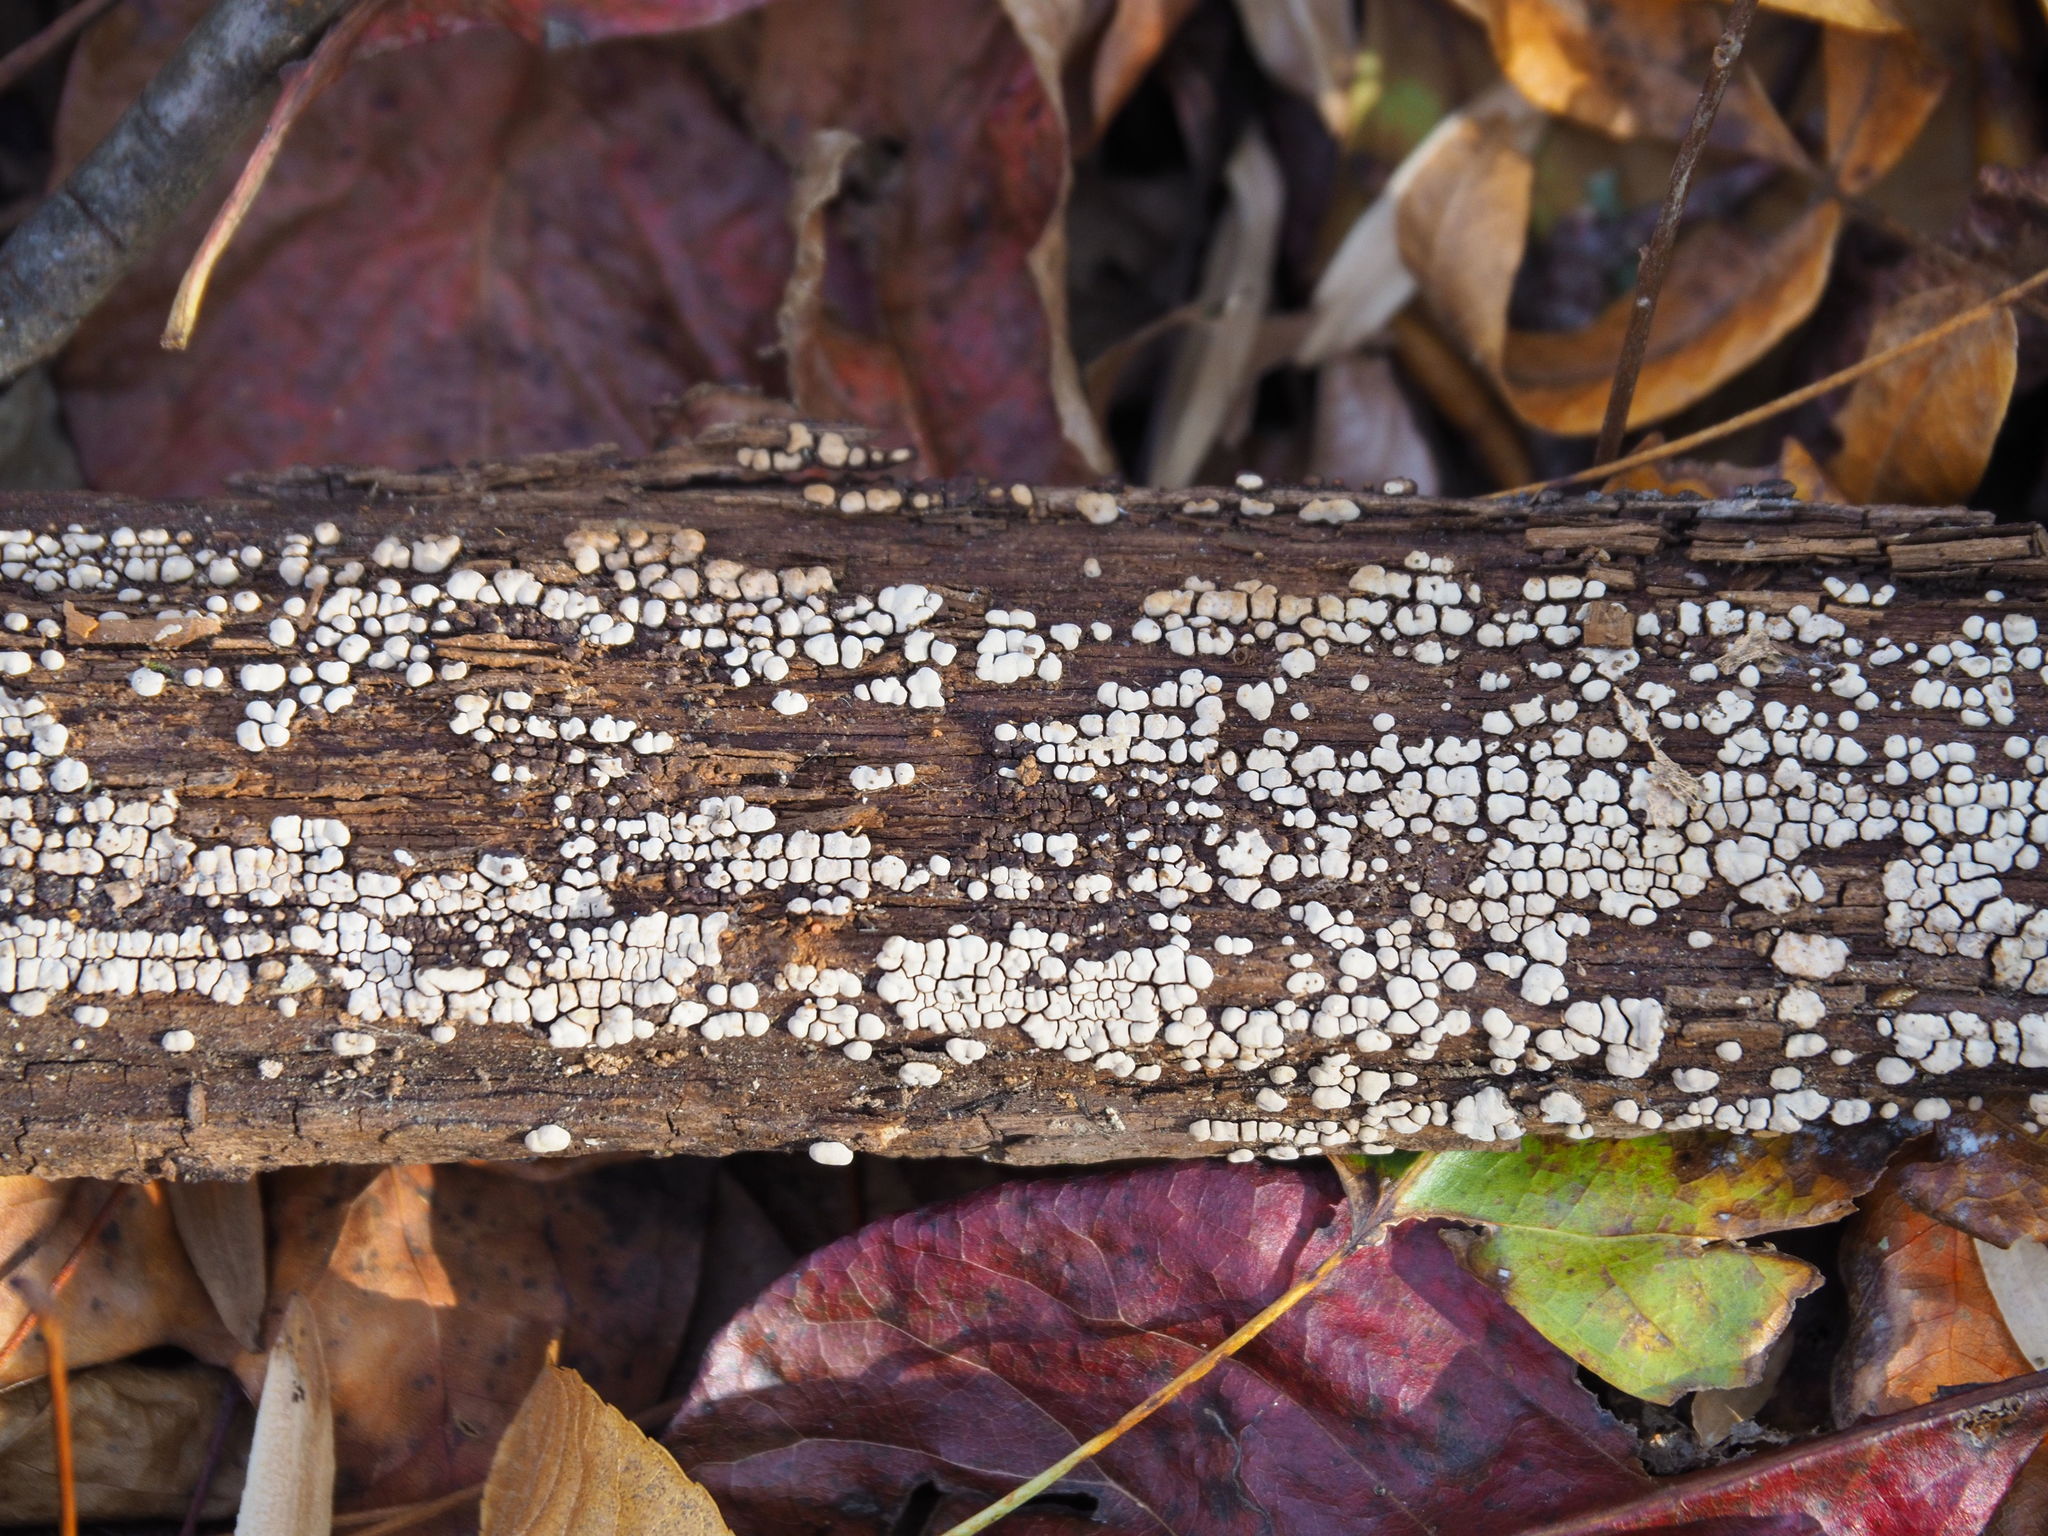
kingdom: Fungi
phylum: Basidiomycota
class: Agaricomycetes
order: Russulales
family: Stereaceae
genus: Xylobolus
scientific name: Xylobolus frustulatus
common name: Ceramic parchment
